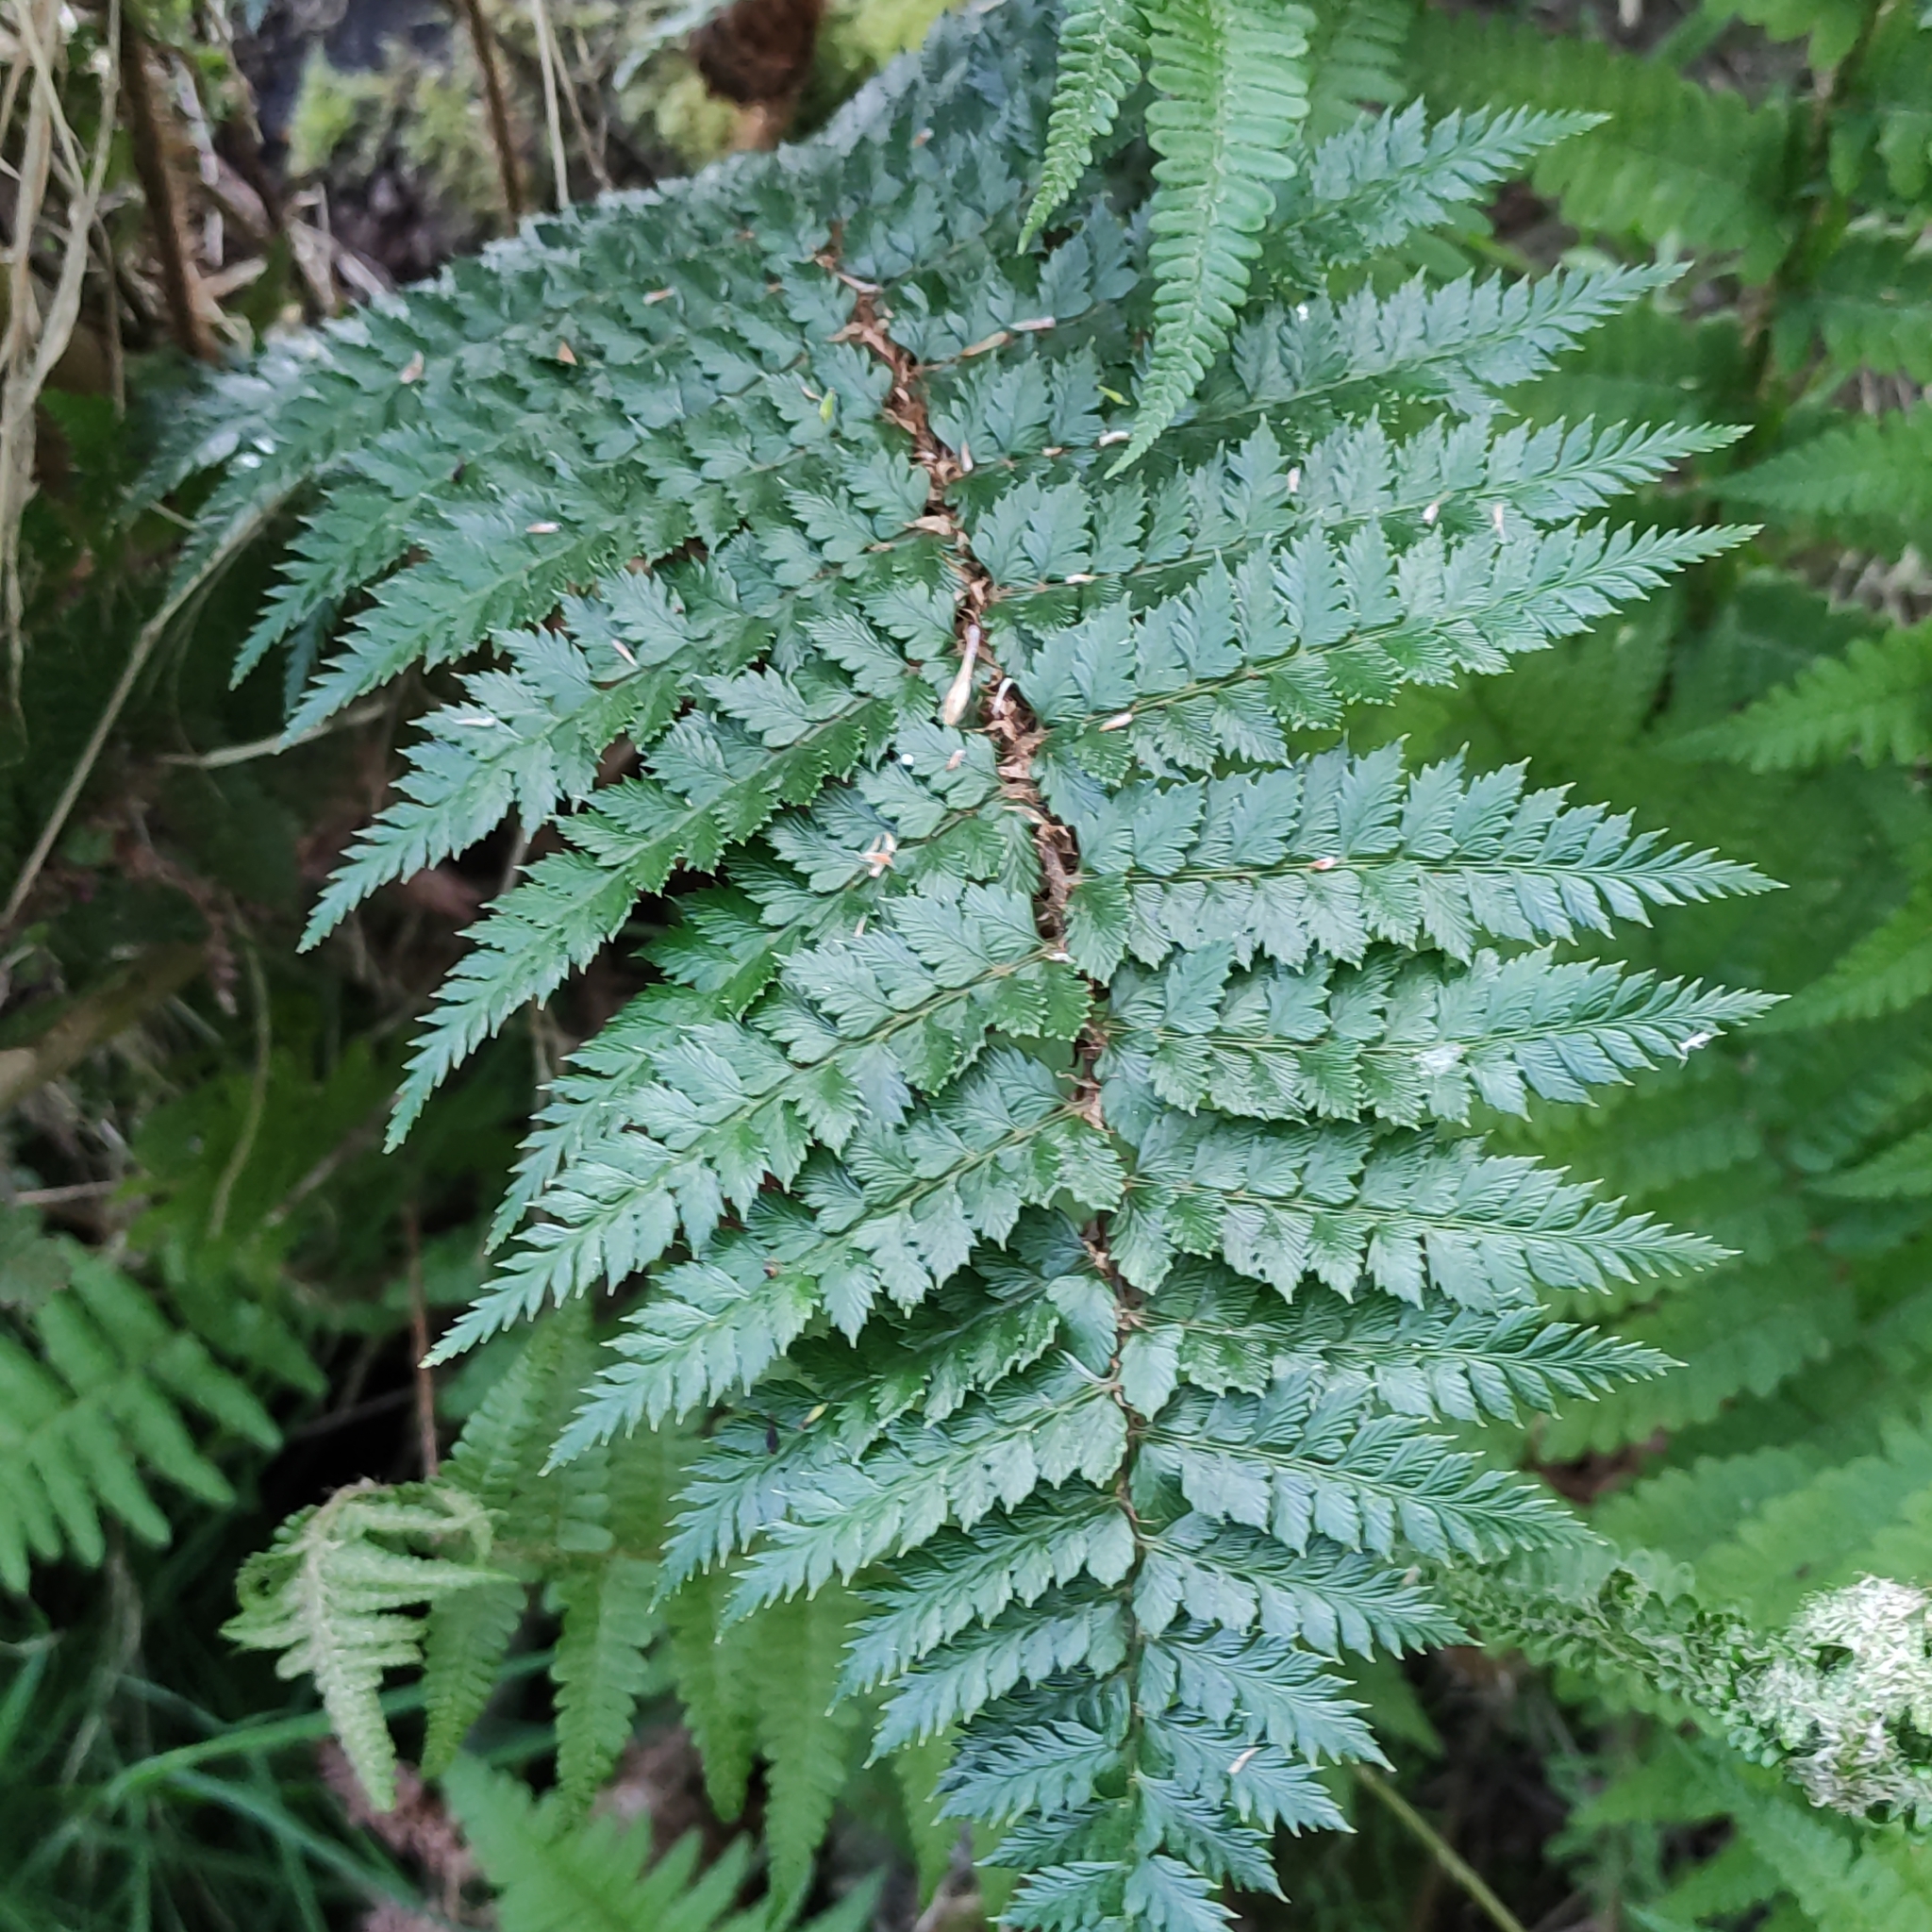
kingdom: Plantae
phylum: Tracheophyta
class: Polypodiopsida
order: Polypodiales
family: Dryopteridaceae
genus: Polystichum
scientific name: Polystichum vestitum
